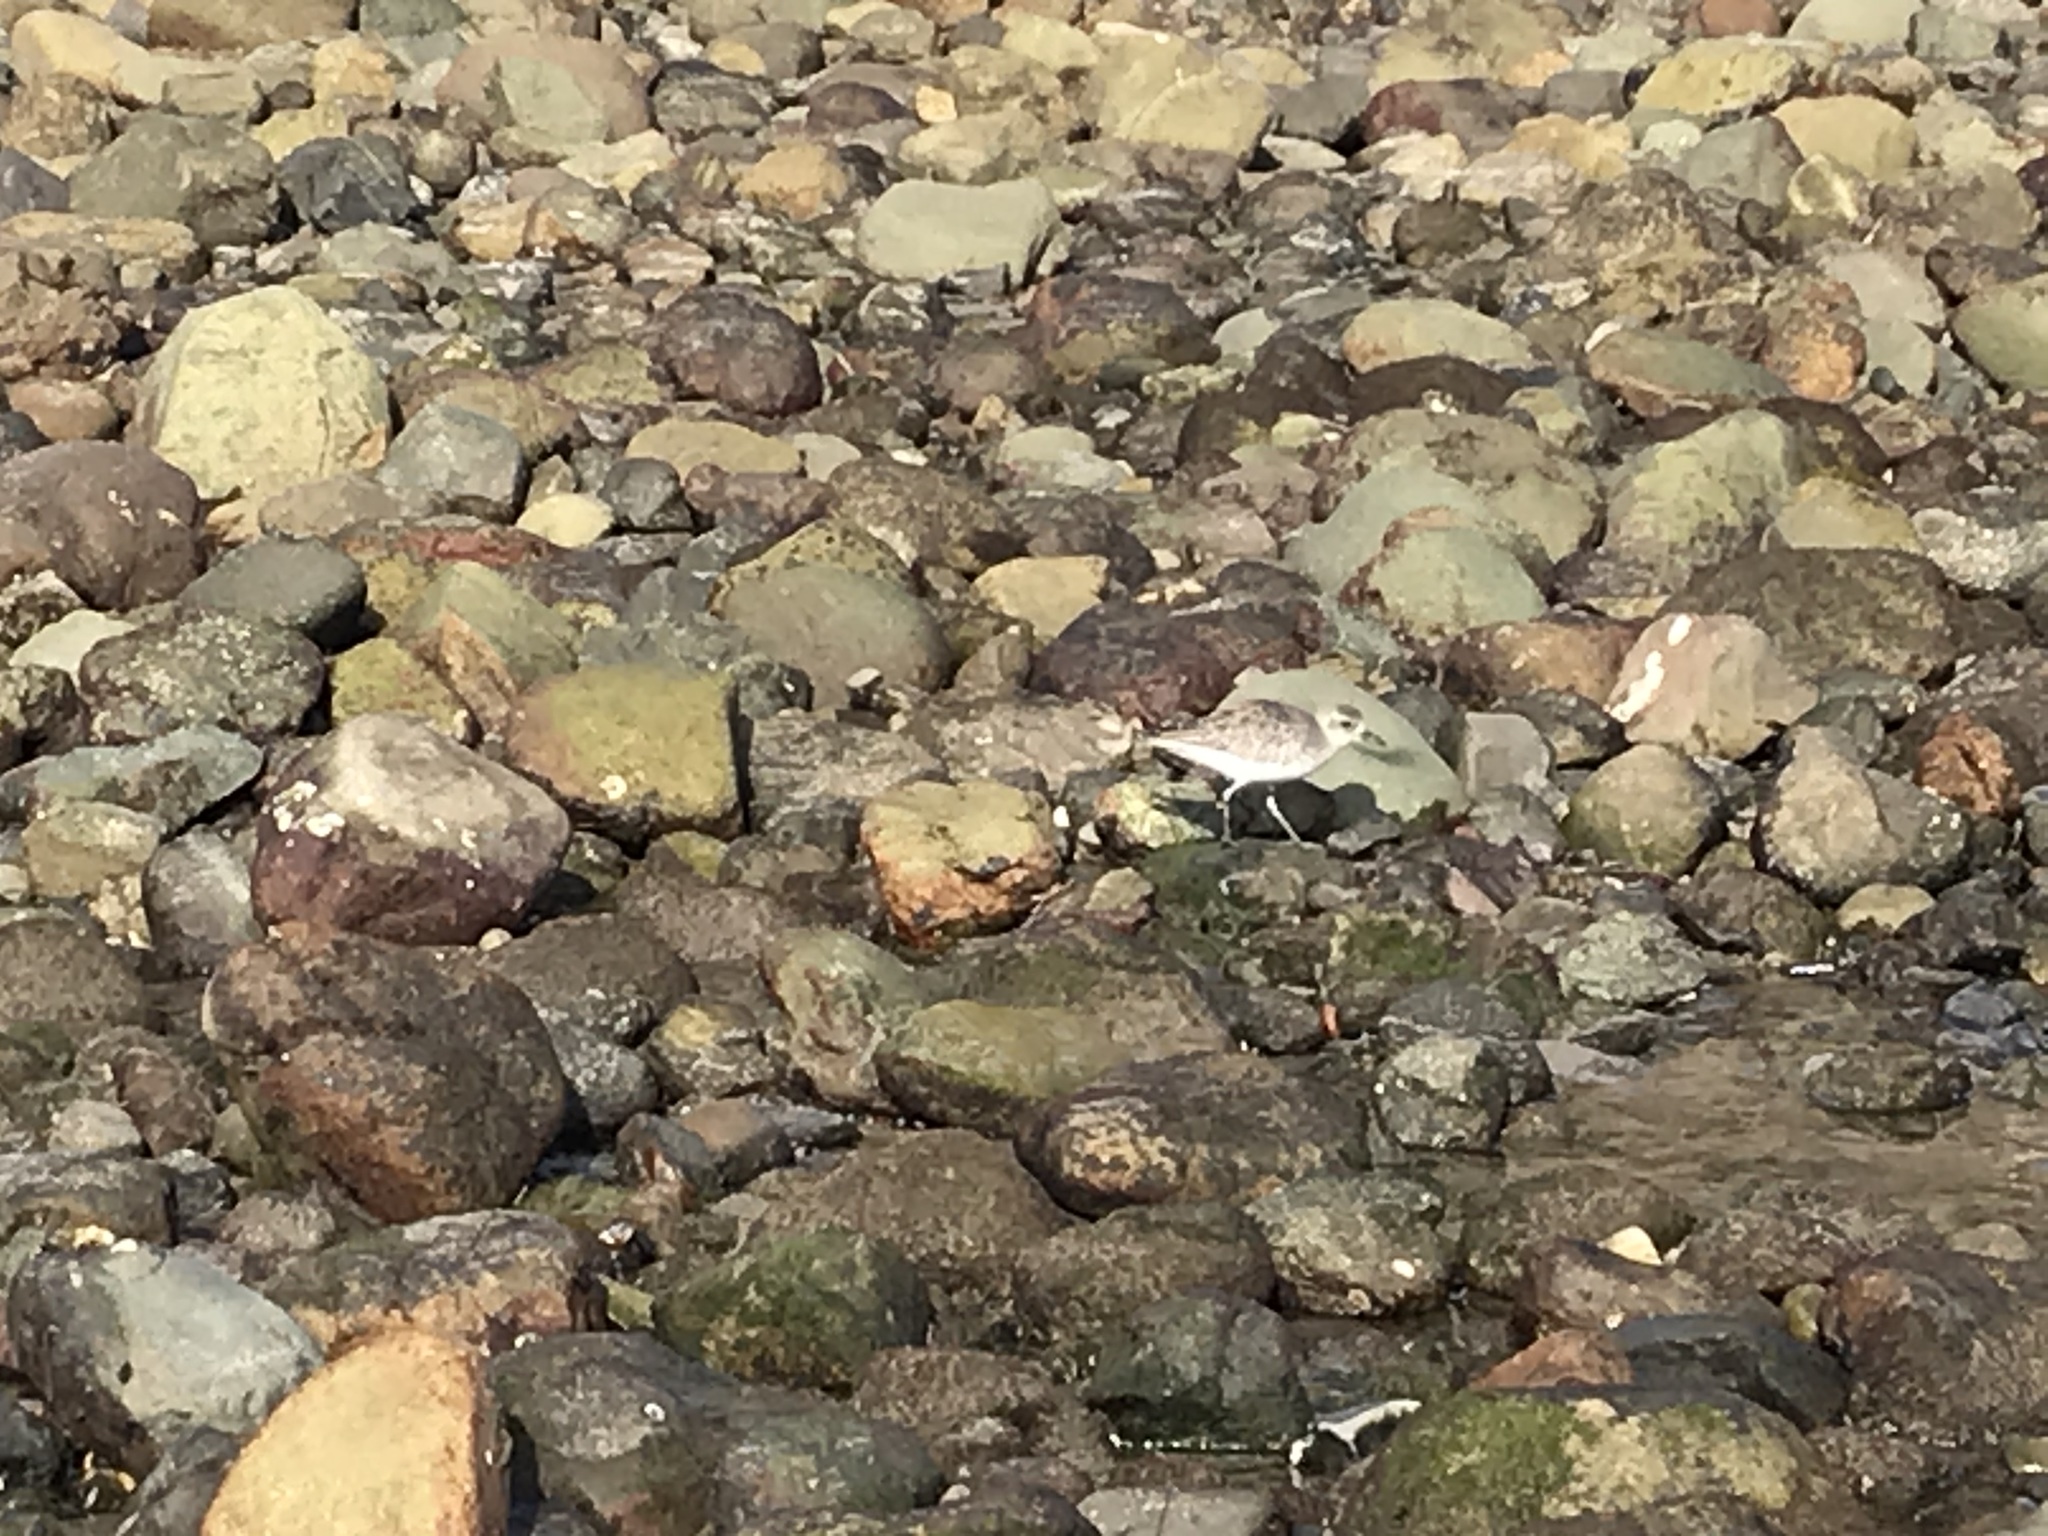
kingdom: Animalia
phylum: Chordata
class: Aves
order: Charadriiformes
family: Charadriidae
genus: Pluvialis
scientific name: Pluvialis squatarola
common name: Grey plover
